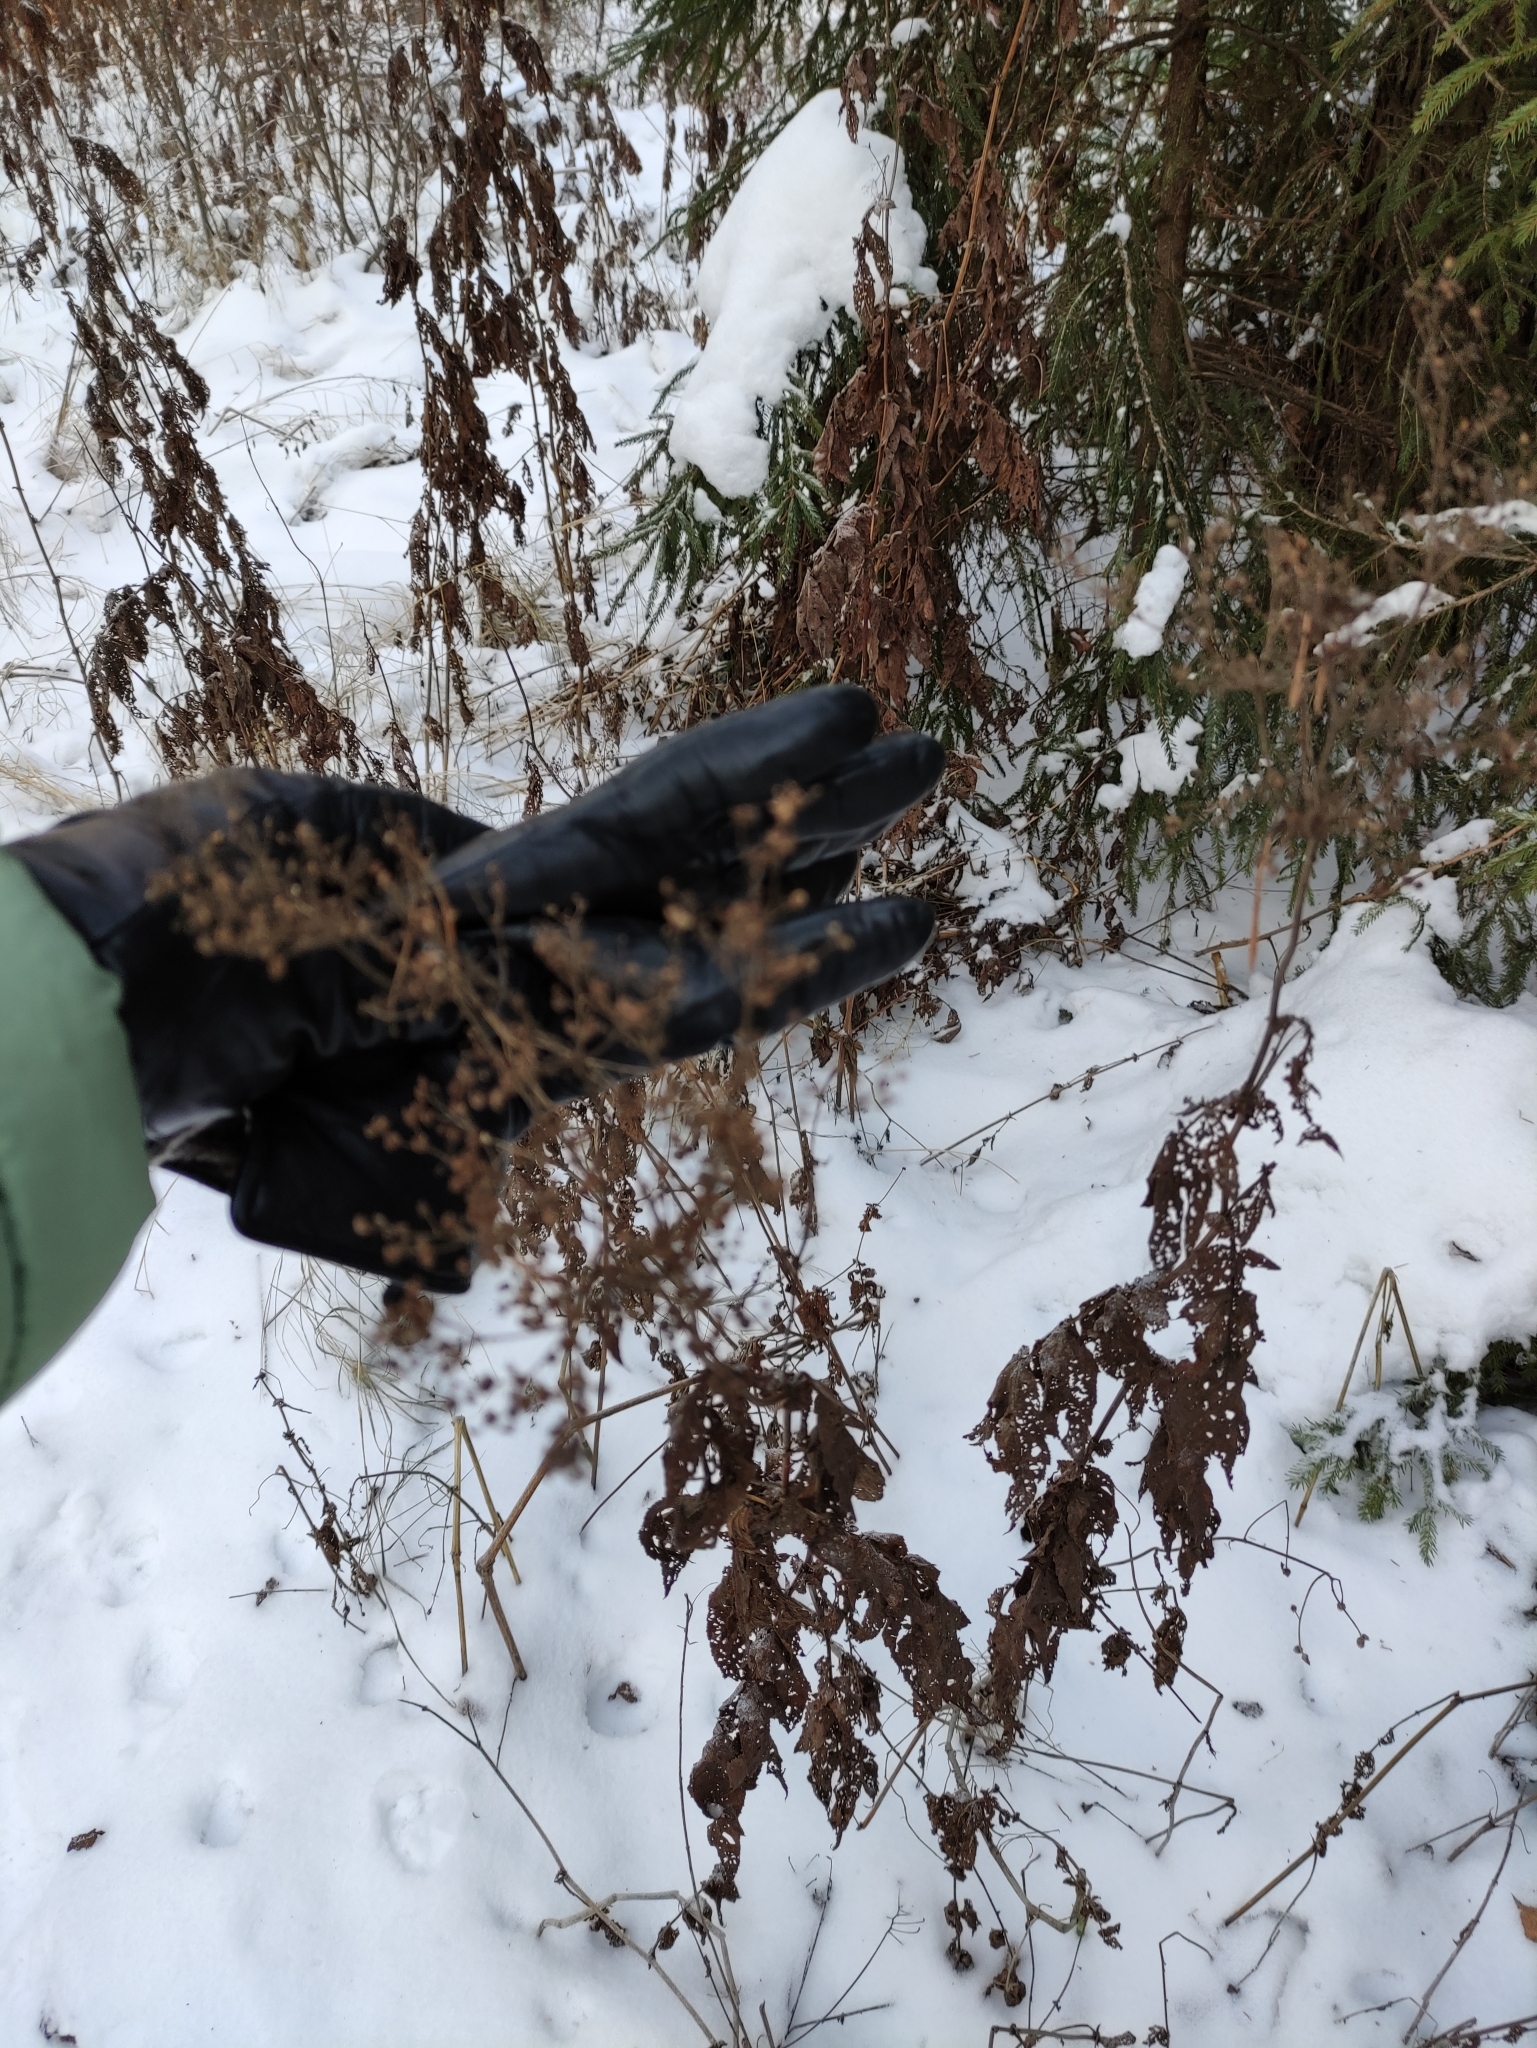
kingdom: Plantae
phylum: Tracheophyta
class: Magnoliopsida
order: Rosales
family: Rosaceae
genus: Filipendula
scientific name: Filipendula ulmaria
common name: Meadowsweet
